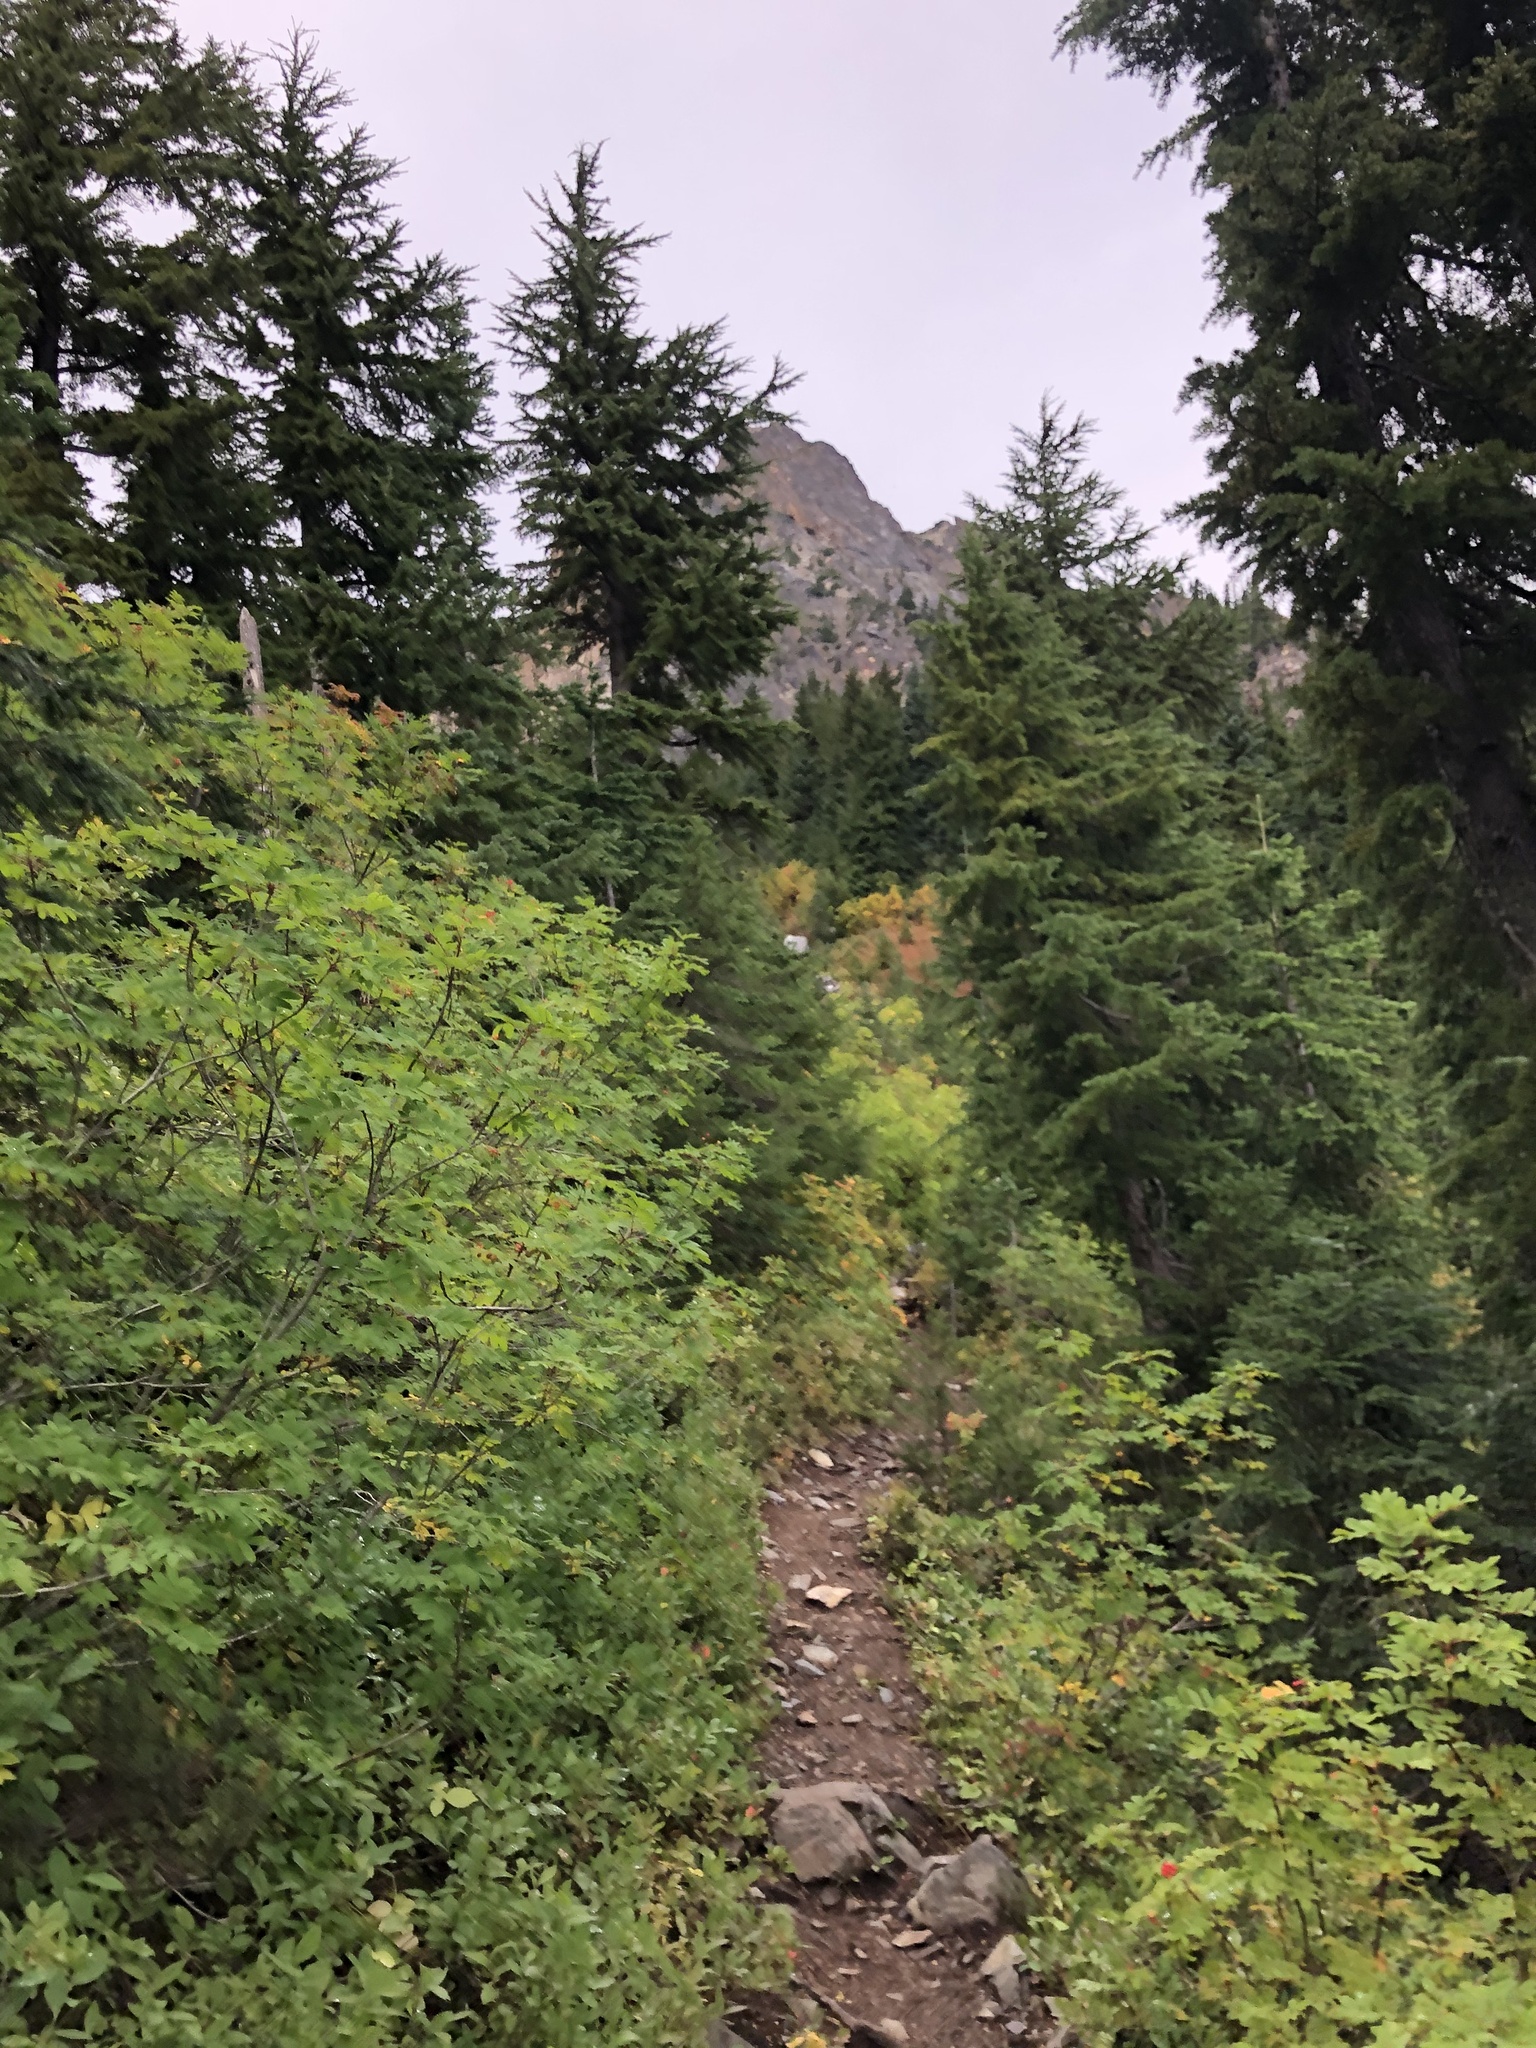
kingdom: Plantae
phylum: Tracheophyta
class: Pinopsida
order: Pinales
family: Pinaceae
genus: Tsuga
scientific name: Tsuga mertensiana
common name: Mountain hemlock
